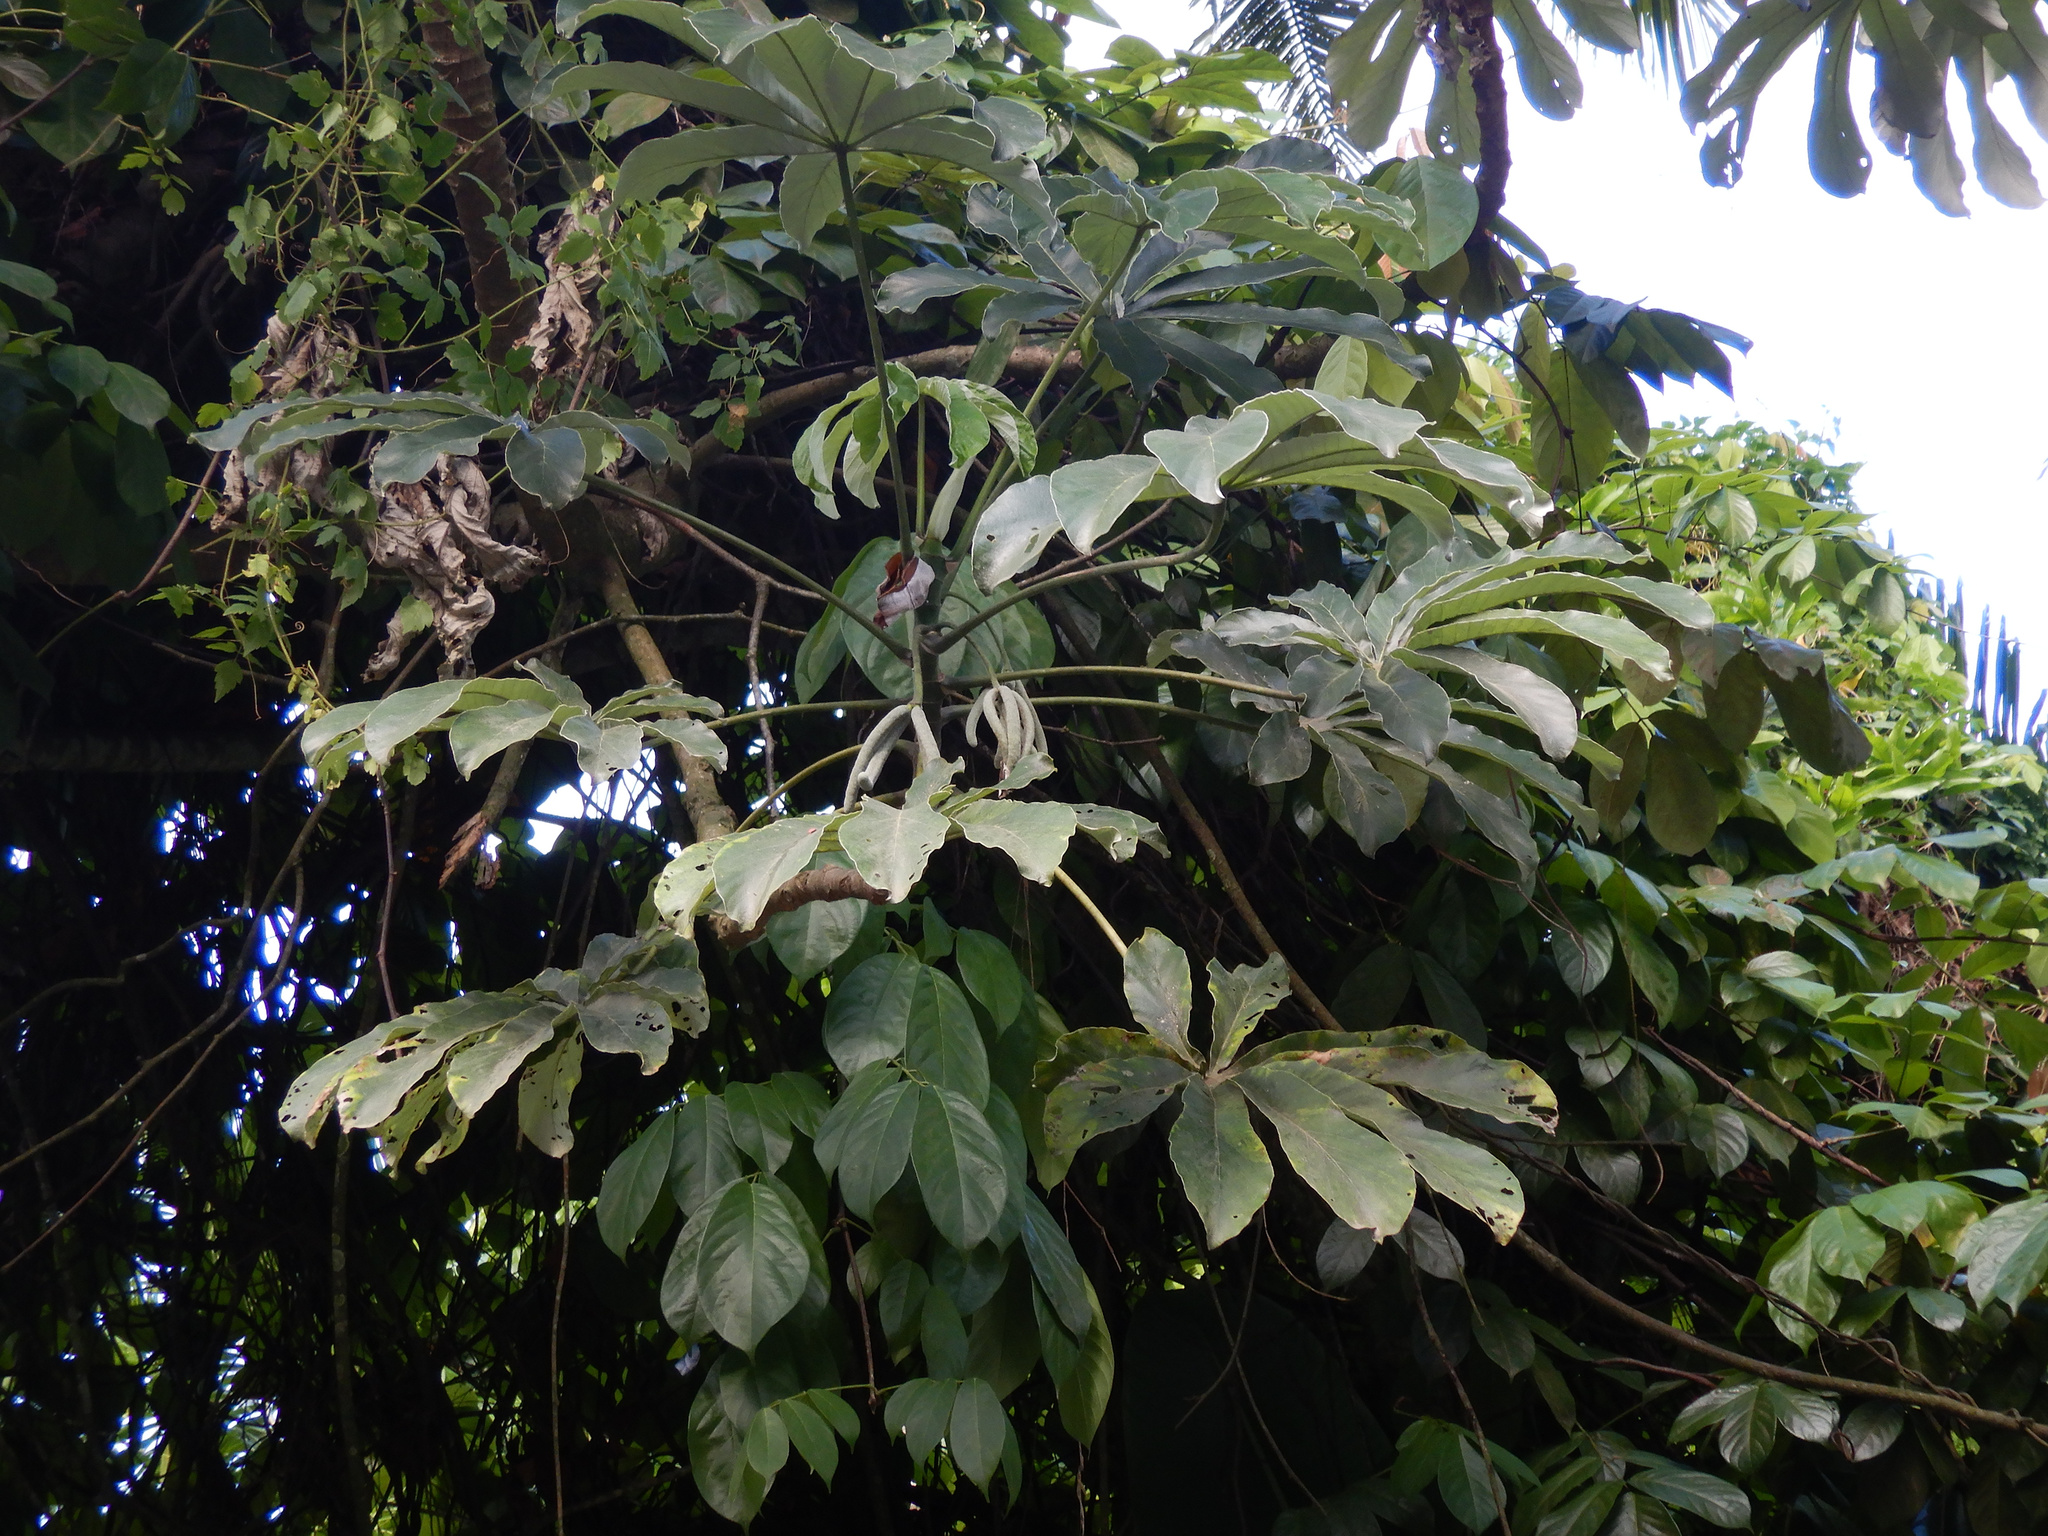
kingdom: Plantae
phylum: Tracheophyta
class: Magnoliopsida
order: Rosales
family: Urticaceae
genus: Cecropia
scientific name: Cecropia pachystachya
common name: Ambay pumpwood
